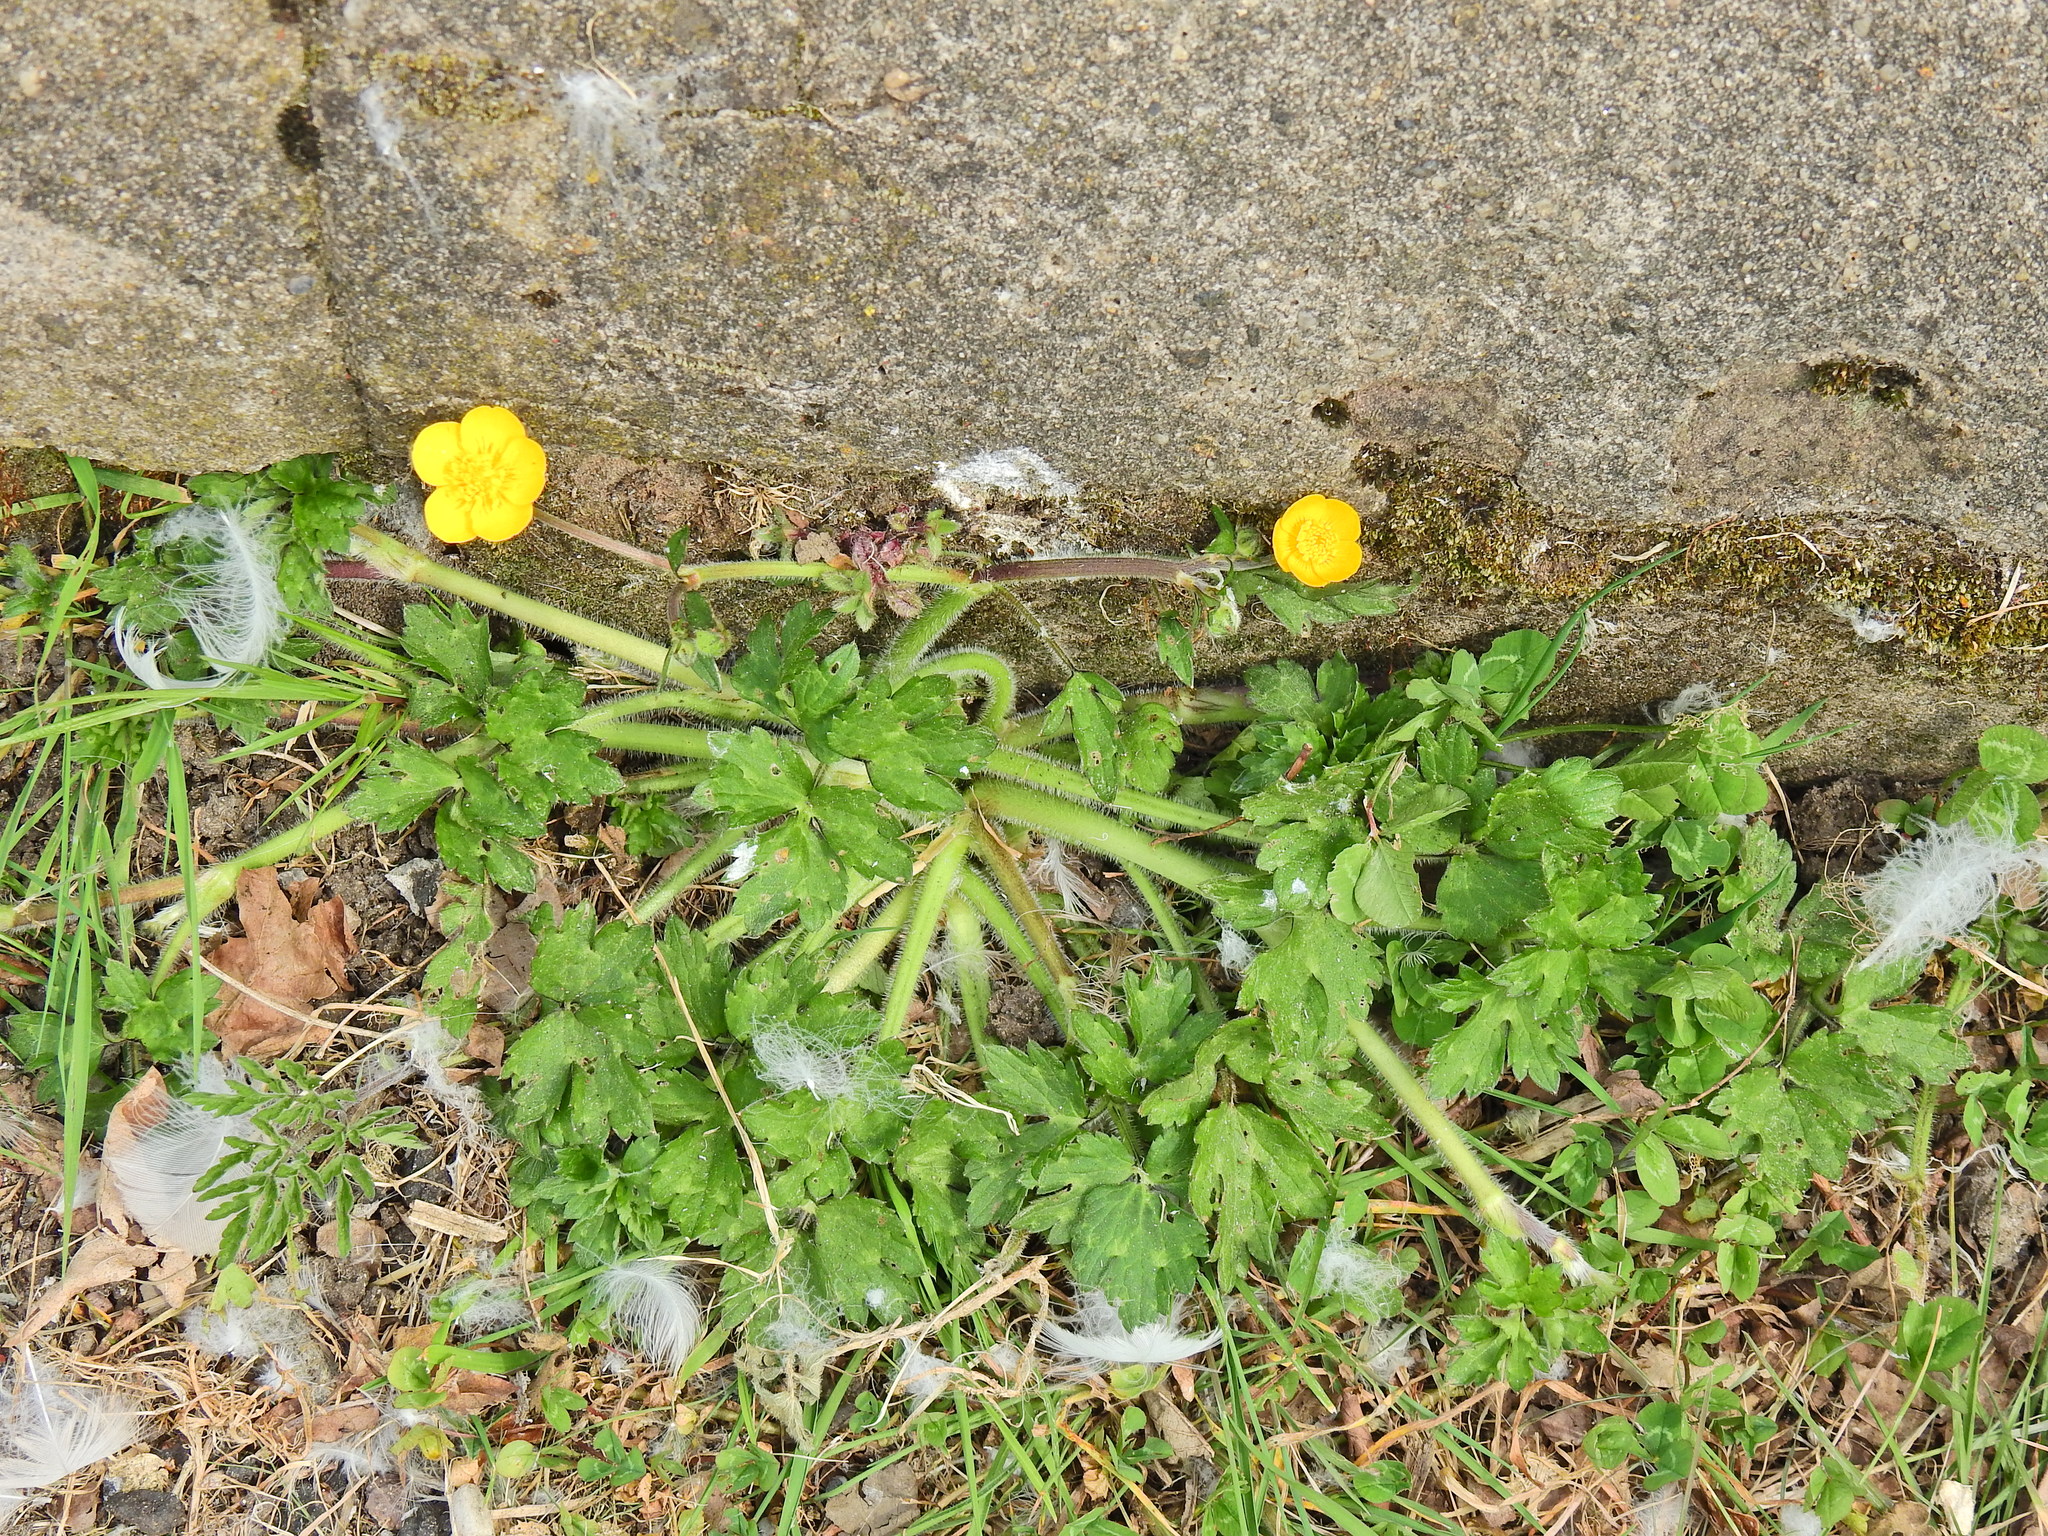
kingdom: Plantae
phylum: Tracheophyta
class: Magnoliopsida
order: Ranunculales
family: Ranunculaceae
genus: Ranunculus
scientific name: Ranunculus repens
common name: Creeping buttercup
